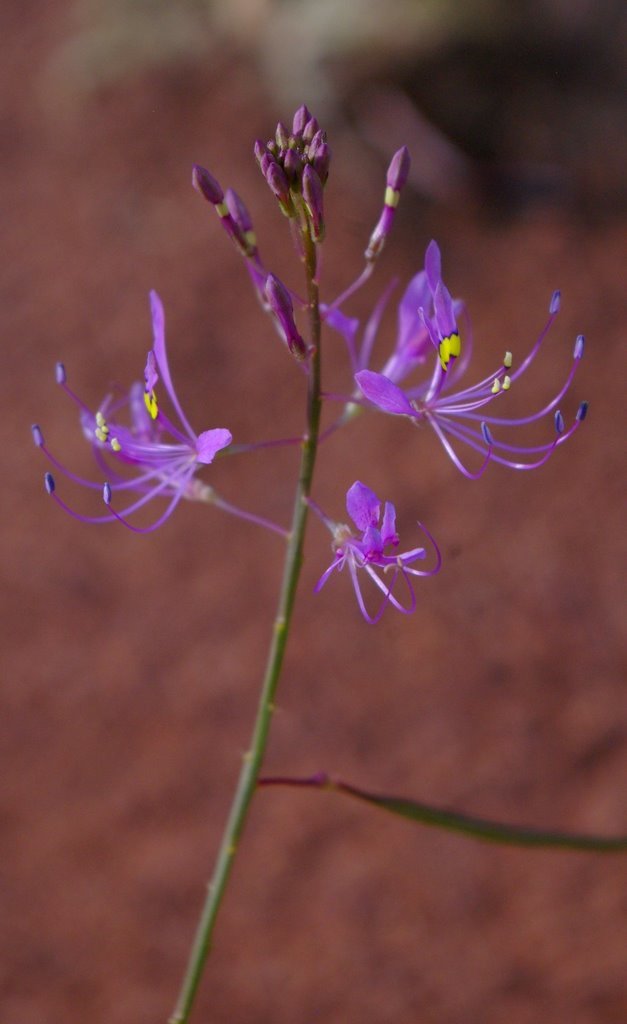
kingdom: Plantae
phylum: Tracheophyta
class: Magnoliopsida
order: Brassicales
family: Cleomaceae
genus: Sieruela
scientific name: Sieruela maculata
